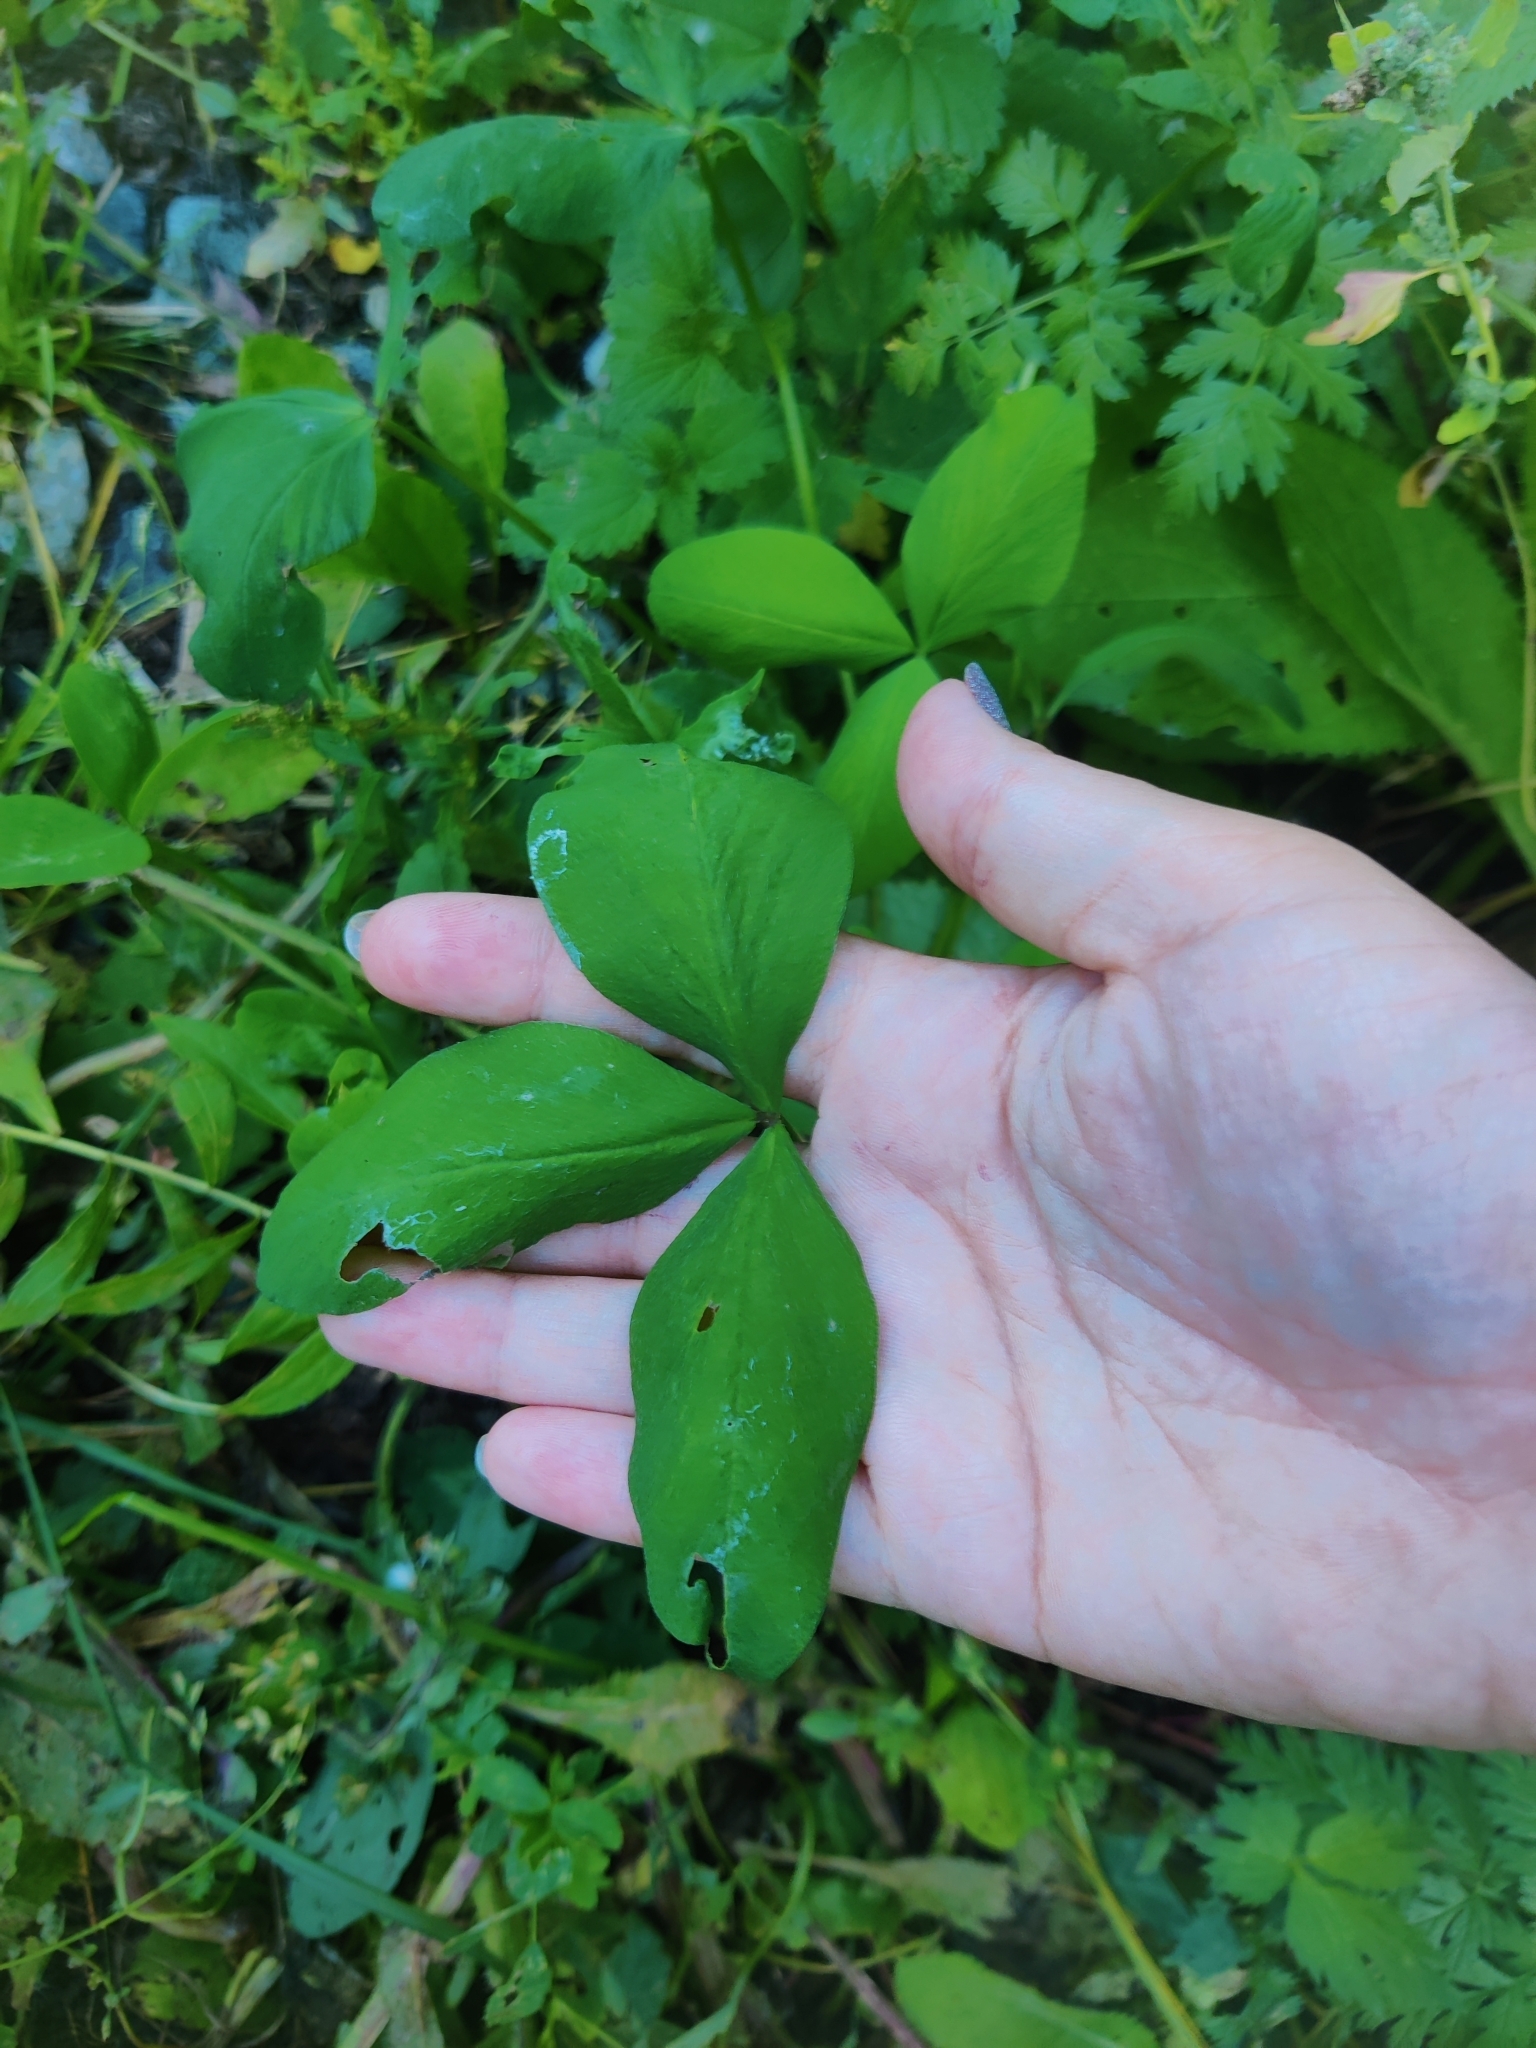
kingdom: Plantae
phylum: Tracheophyta
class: Magnoliopsida
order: Fabales
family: Fabaceae
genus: Trifolium
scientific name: Trifolium pratense
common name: Red clover
